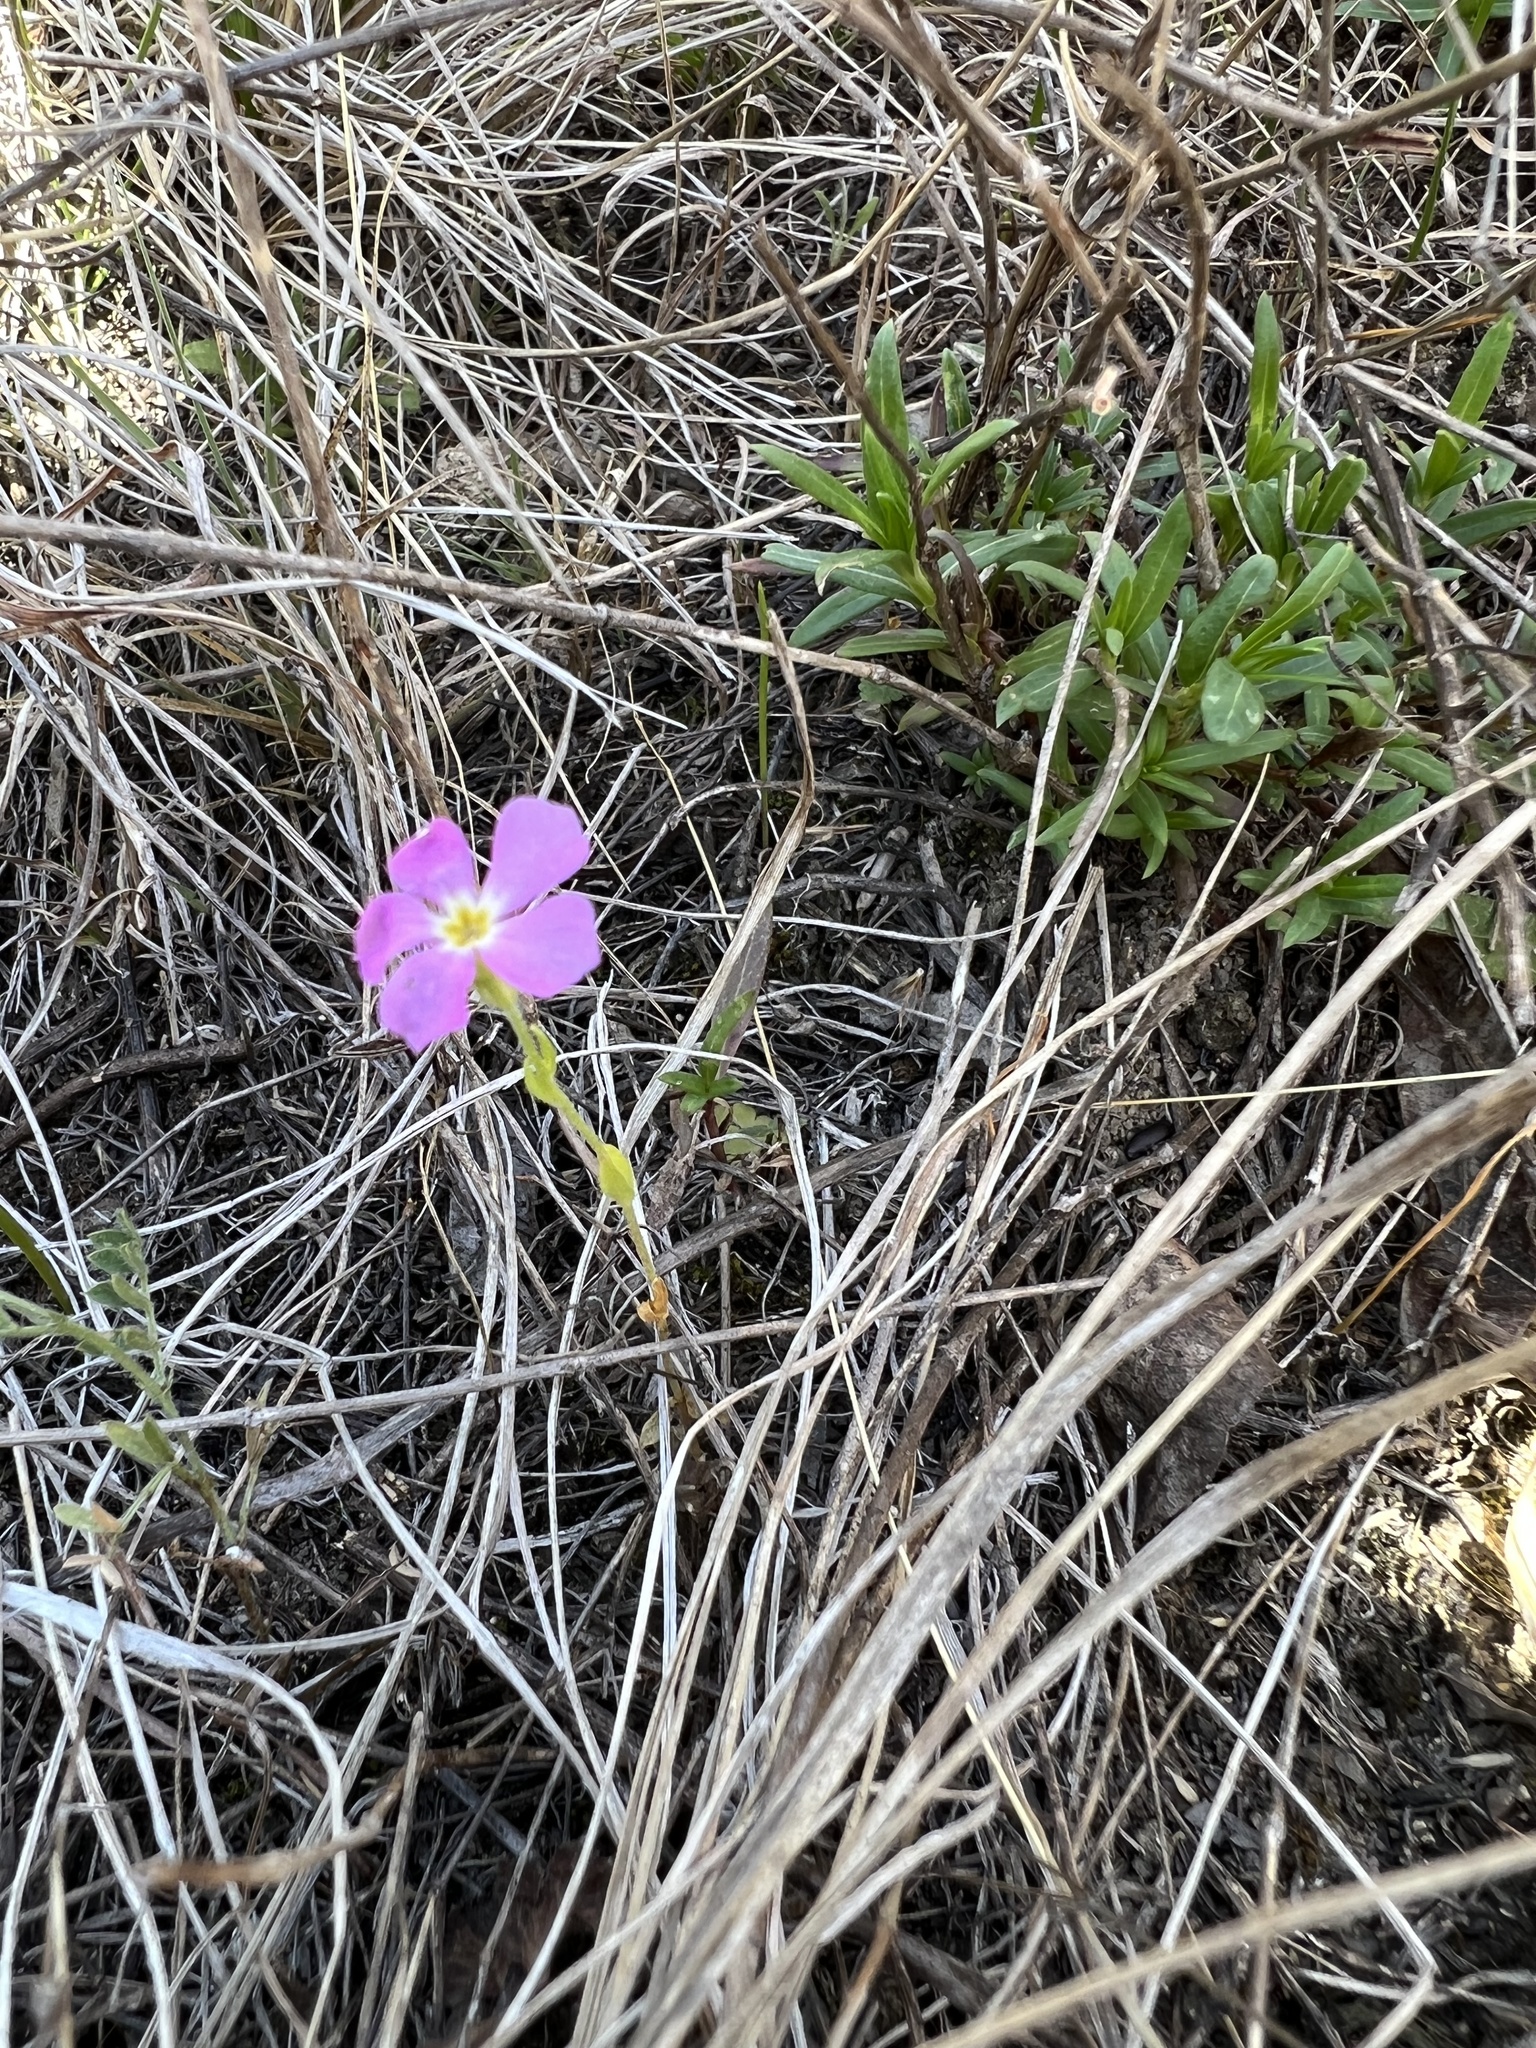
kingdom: Plantae
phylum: Tracheophyta
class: Magnoliopsida
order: Ericales
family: Polemoniaceae
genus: Phlox
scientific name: Phlox roemeriana
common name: Roemer's phlox
